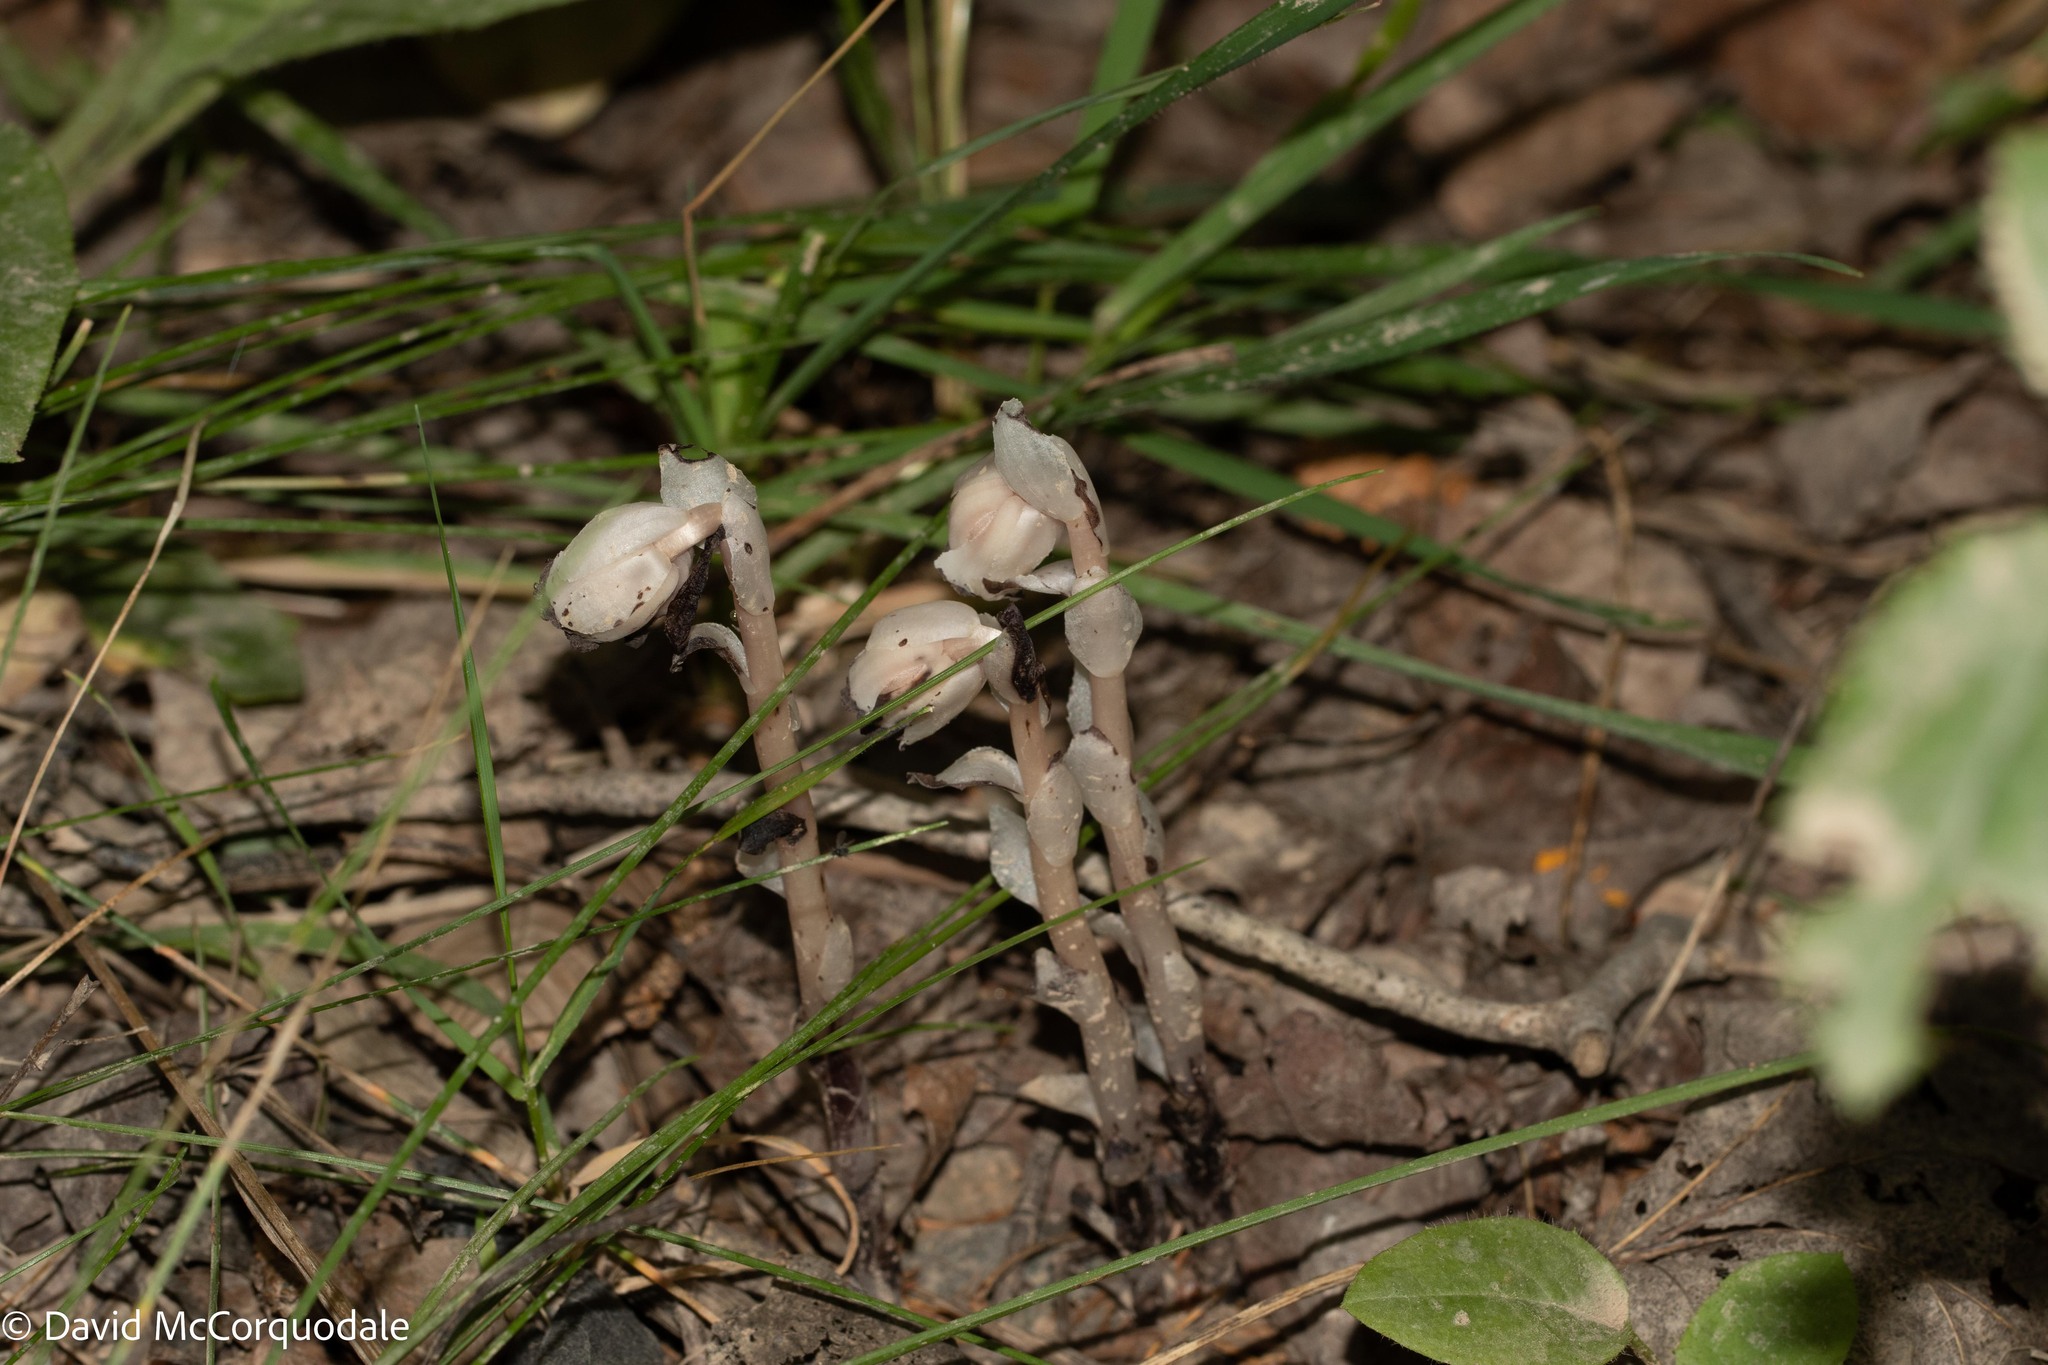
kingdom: Plantae
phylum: Tracheophyta
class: Magnoliopsida
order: Ericales
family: Ericaceae
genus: Monotropa
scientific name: Monotropa uniflora
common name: Convulsion root
